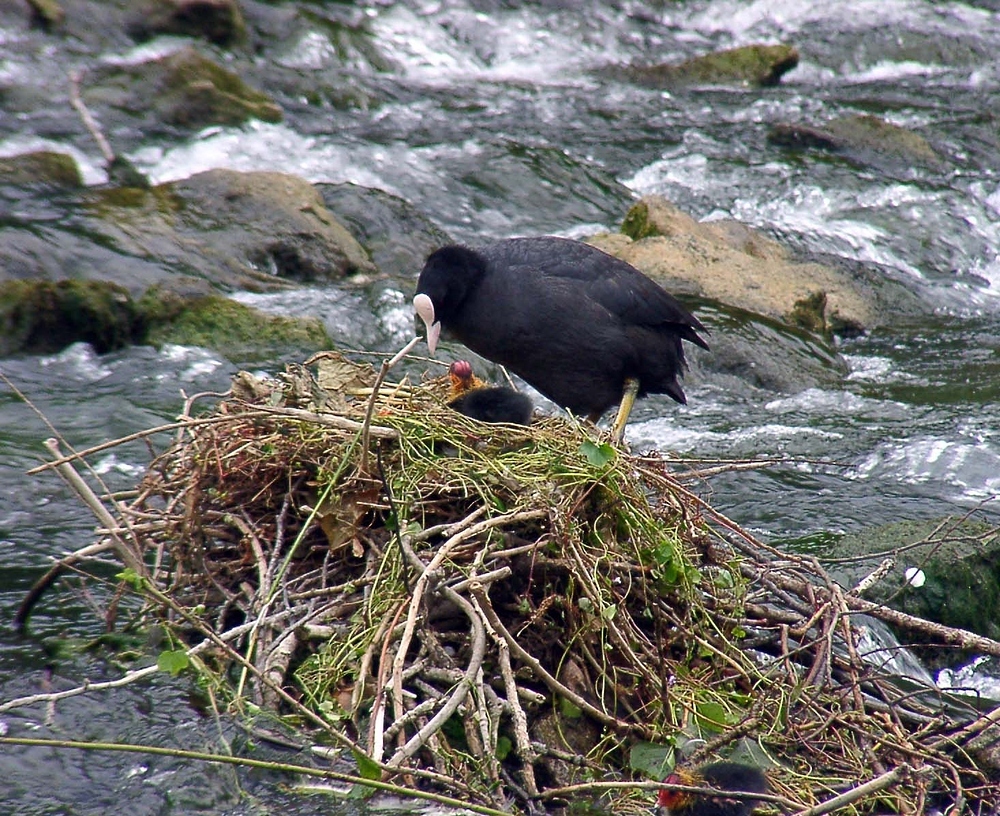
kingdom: Animalia
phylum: Chordata
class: Aves
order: Gruiformes
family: Rallidae
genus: Fulica
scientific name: Fulica atra
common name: Eurasian coot
